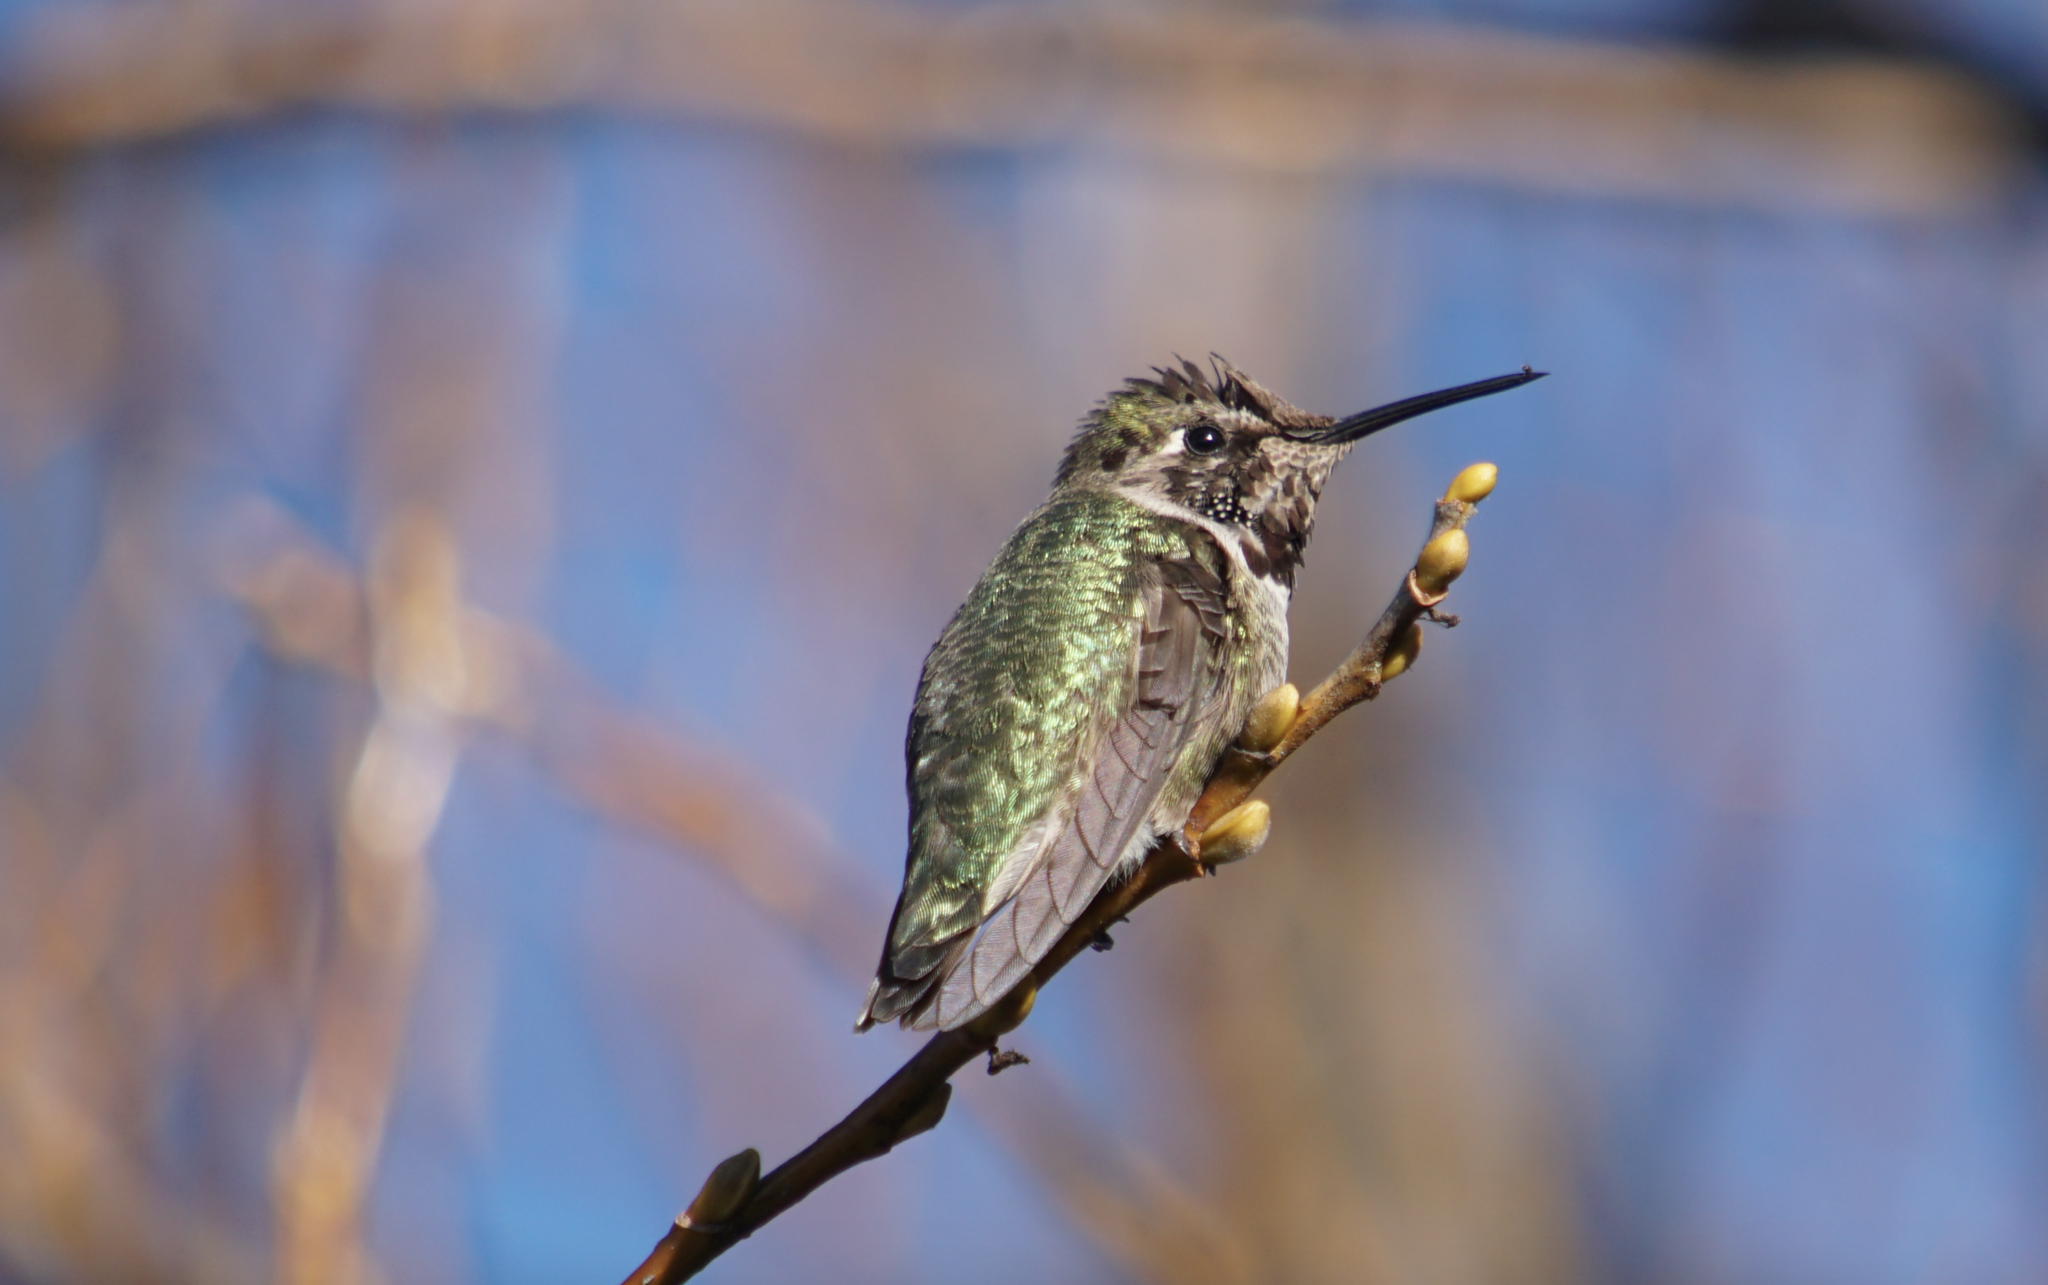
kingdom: Animalia
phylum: Chordata
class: Aves
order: Apodiformes
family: Trochilidae
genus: Calypte
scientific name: Calypte anna
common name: Anna's hummingbird
